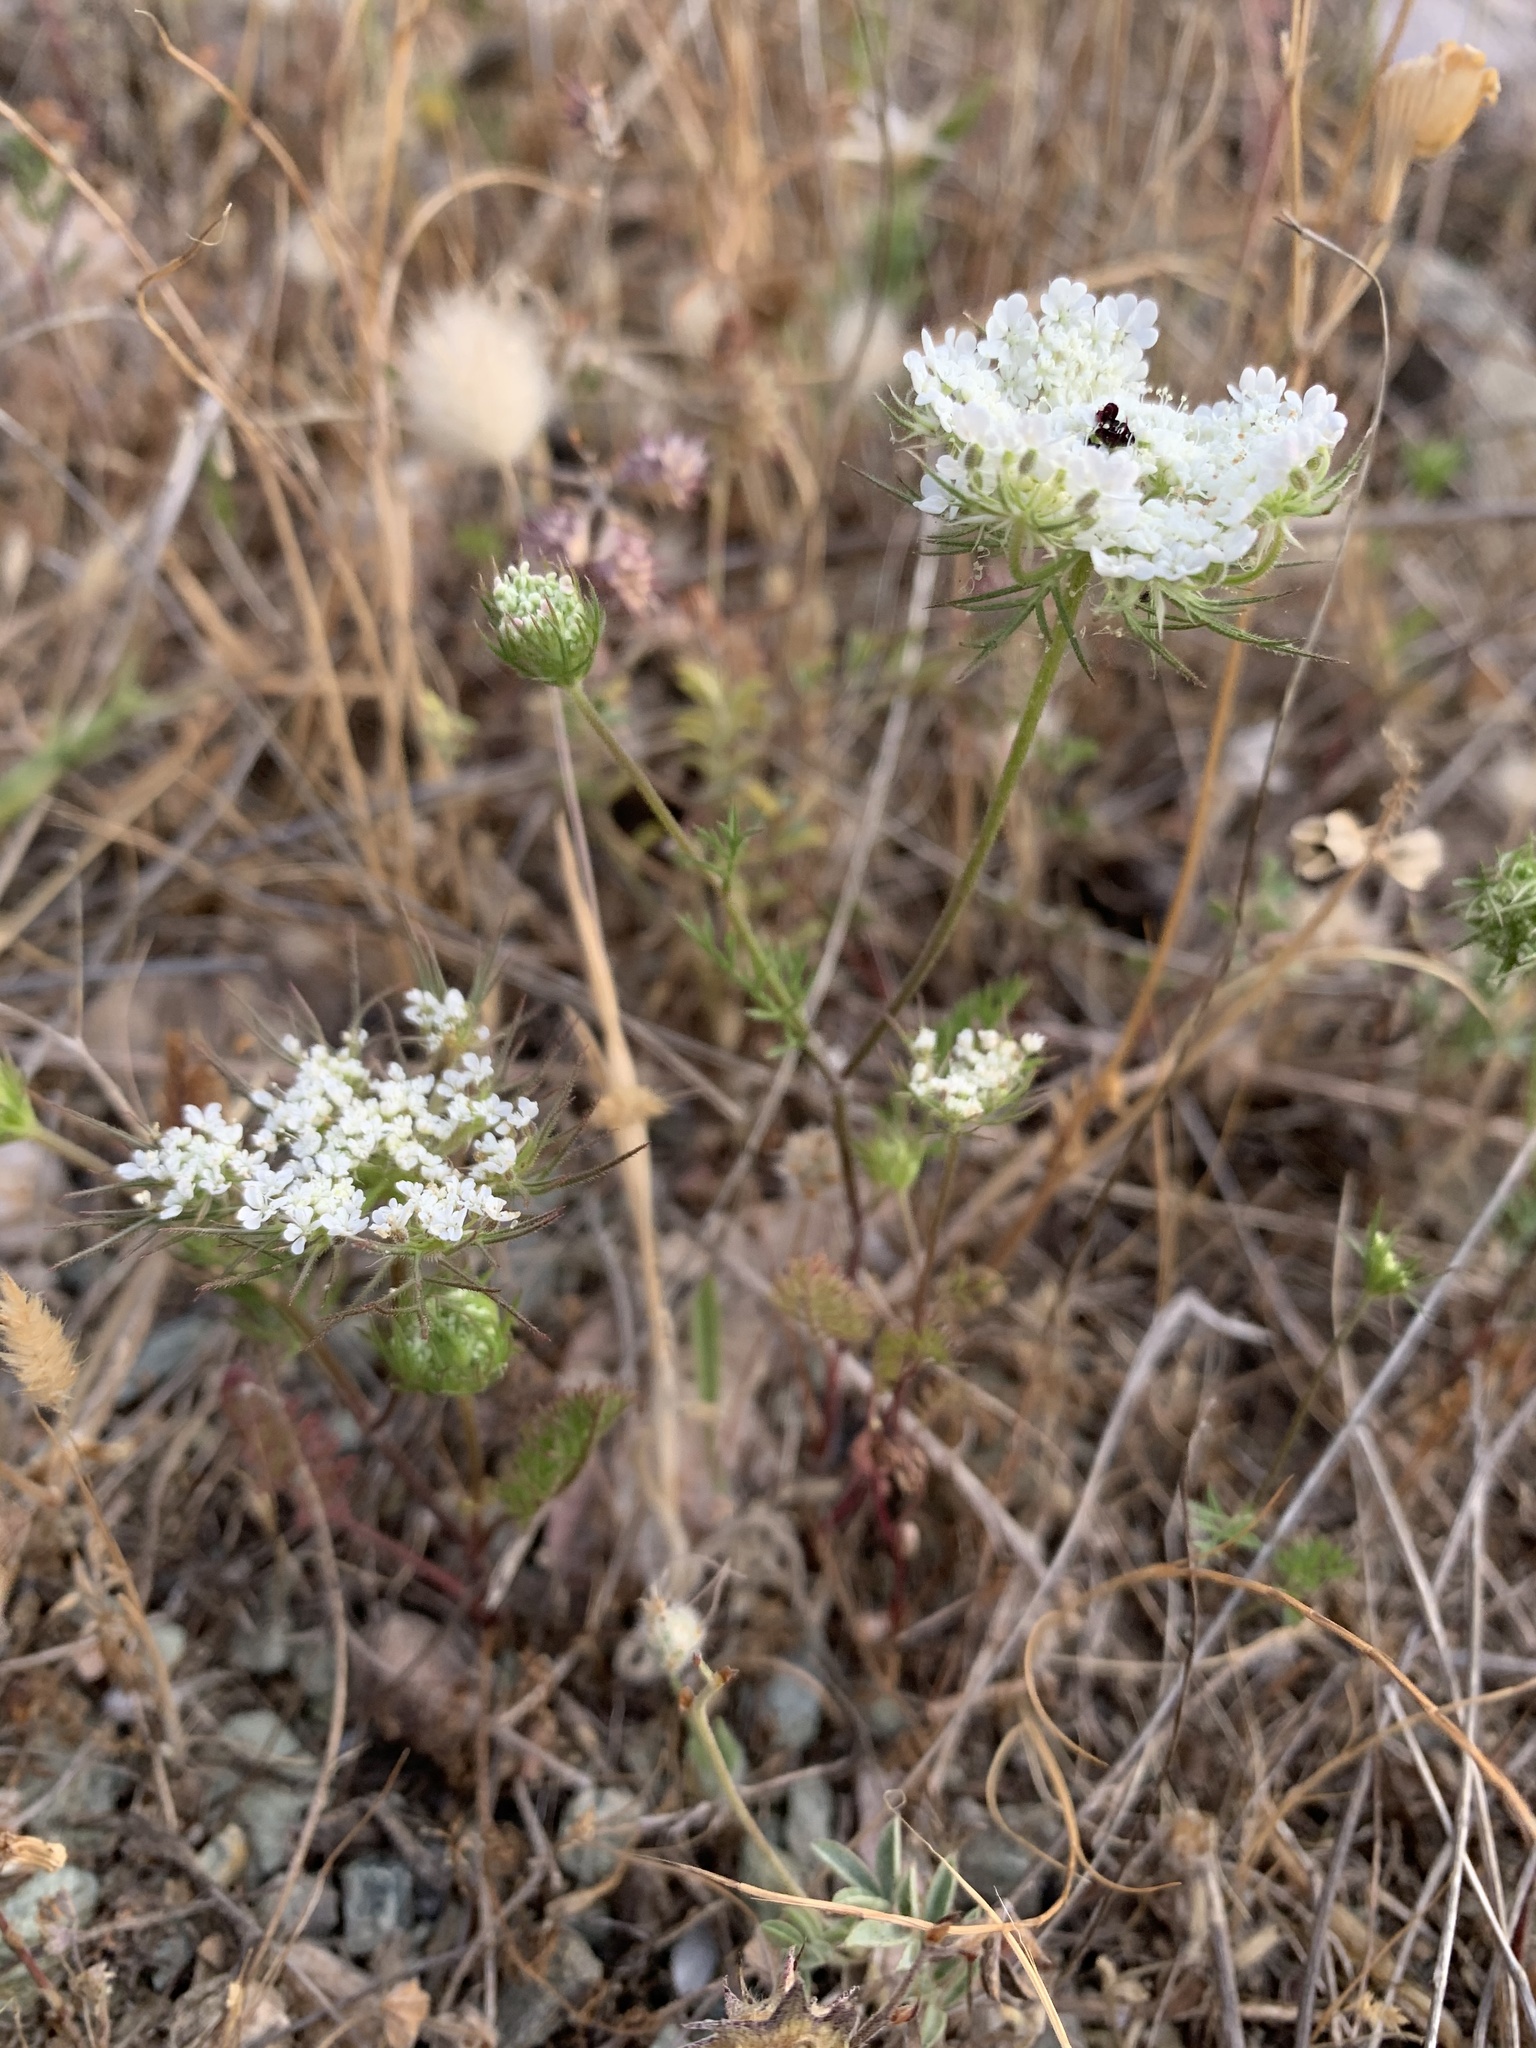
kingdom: Plantae
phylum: Tracheophyta
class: Magnoliopsida
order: Apiales
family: Apiaceae
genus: Daucus
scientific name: Daucus carota
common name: Wild carrot
